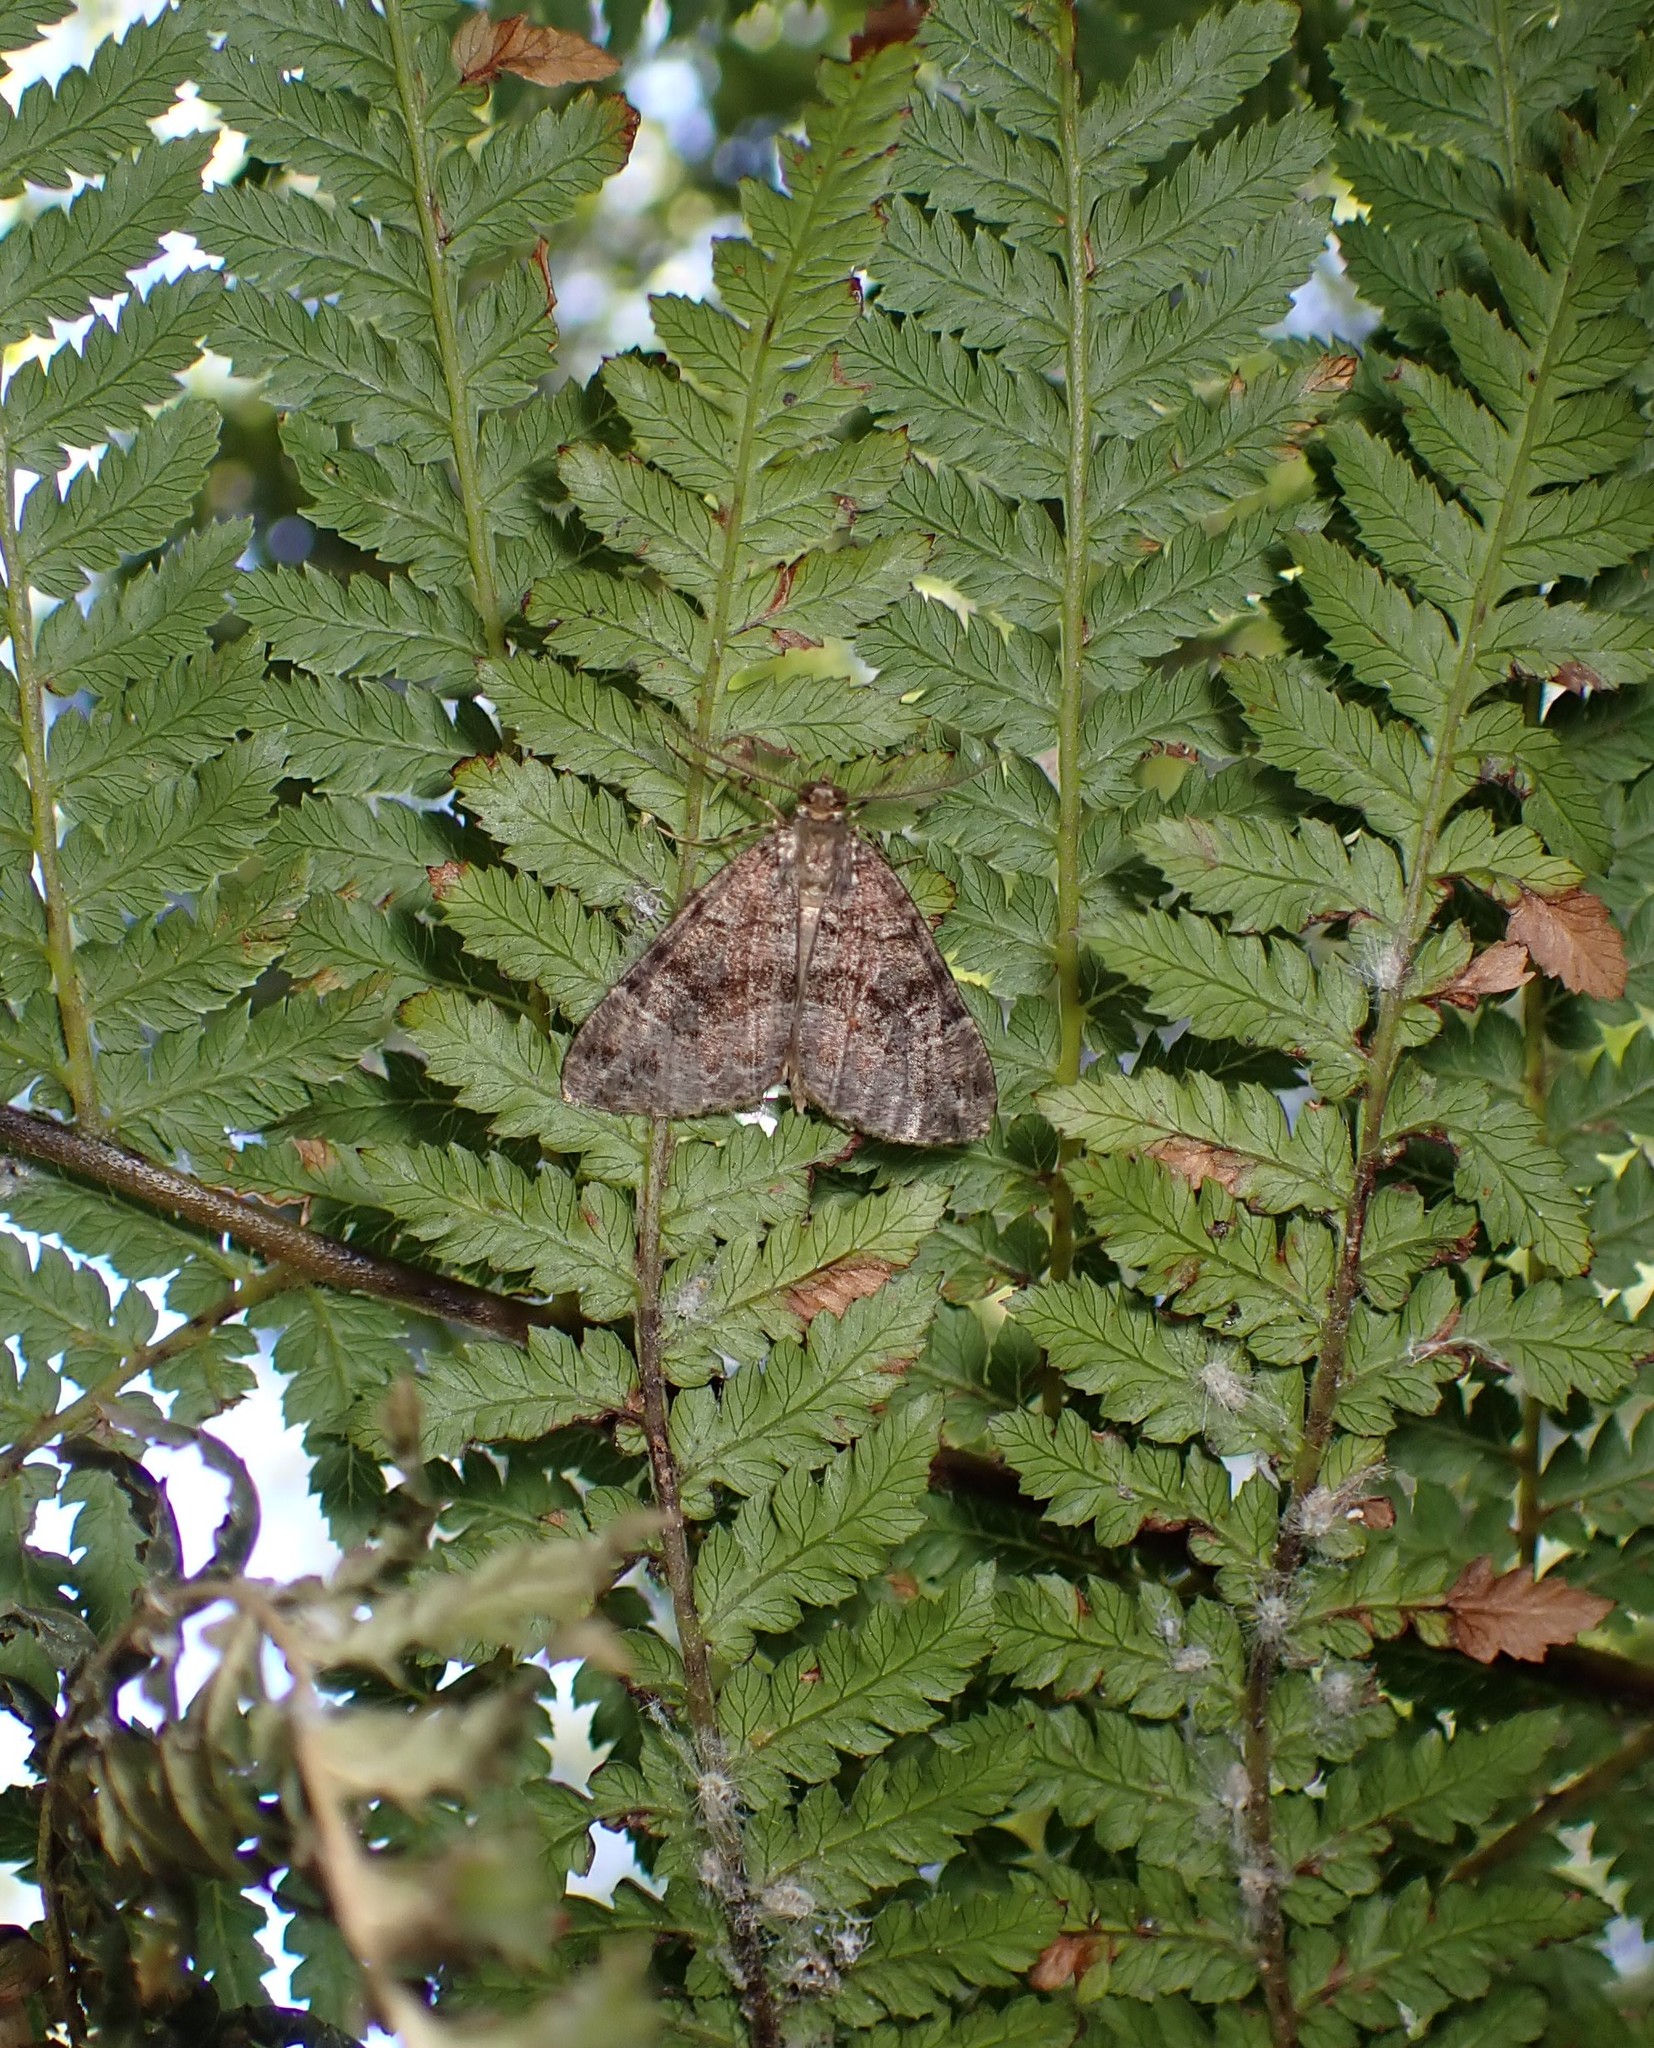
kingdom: Animalia
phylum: Arthropoda
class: Insecta
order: Lepidoptera
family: Geometridae
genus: Pseudocoremia
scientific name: Pseudocoremia productata
